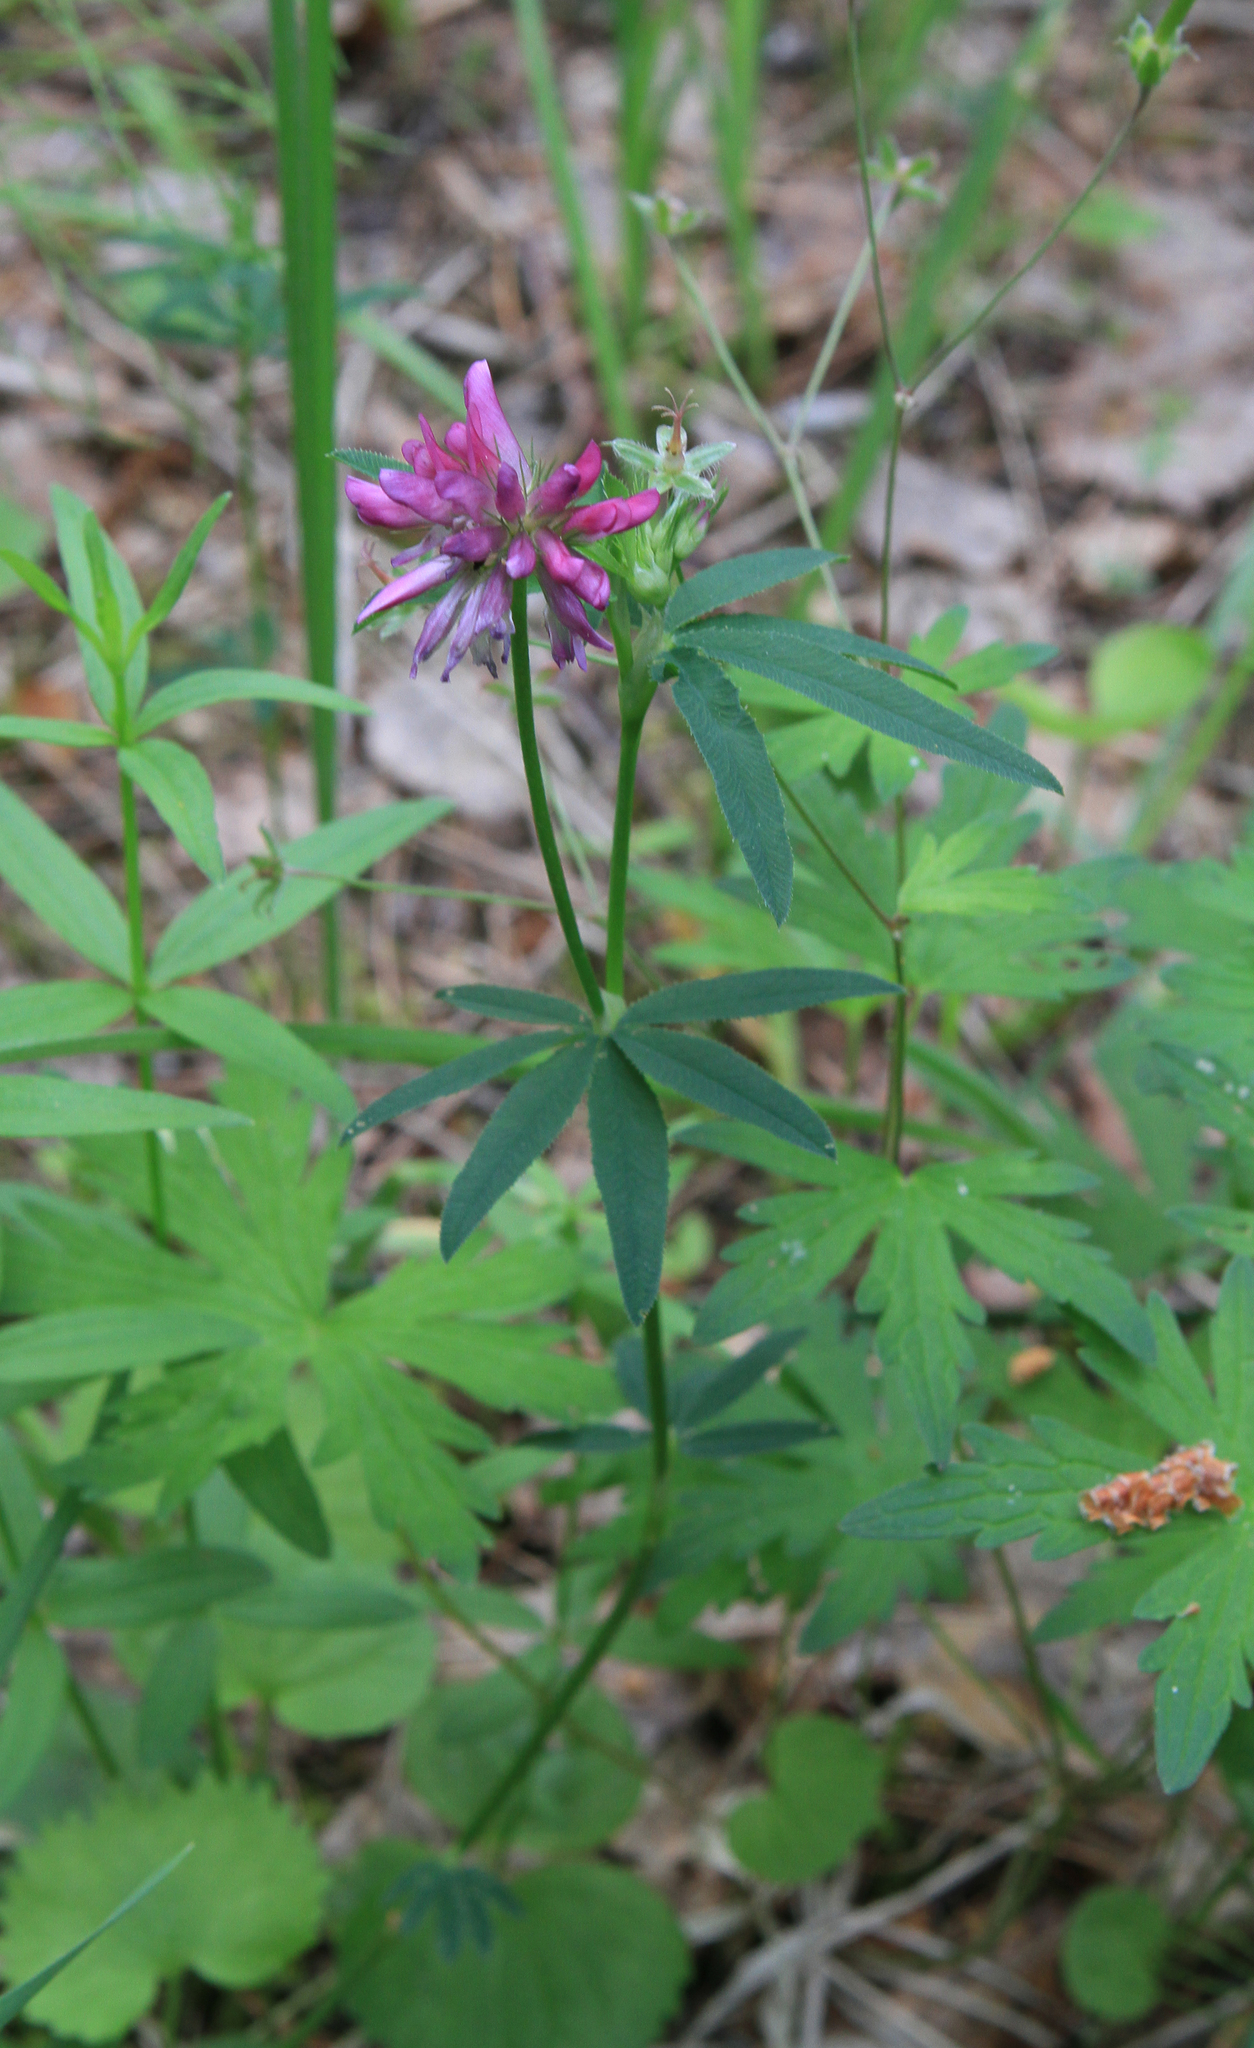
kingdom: Plantae
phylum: Tracheophyta
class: Magnoliopsida
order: Fabales
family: Fabaceae
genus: Trifolium
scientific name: Trifolium lupinaster
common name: Lupine clover
